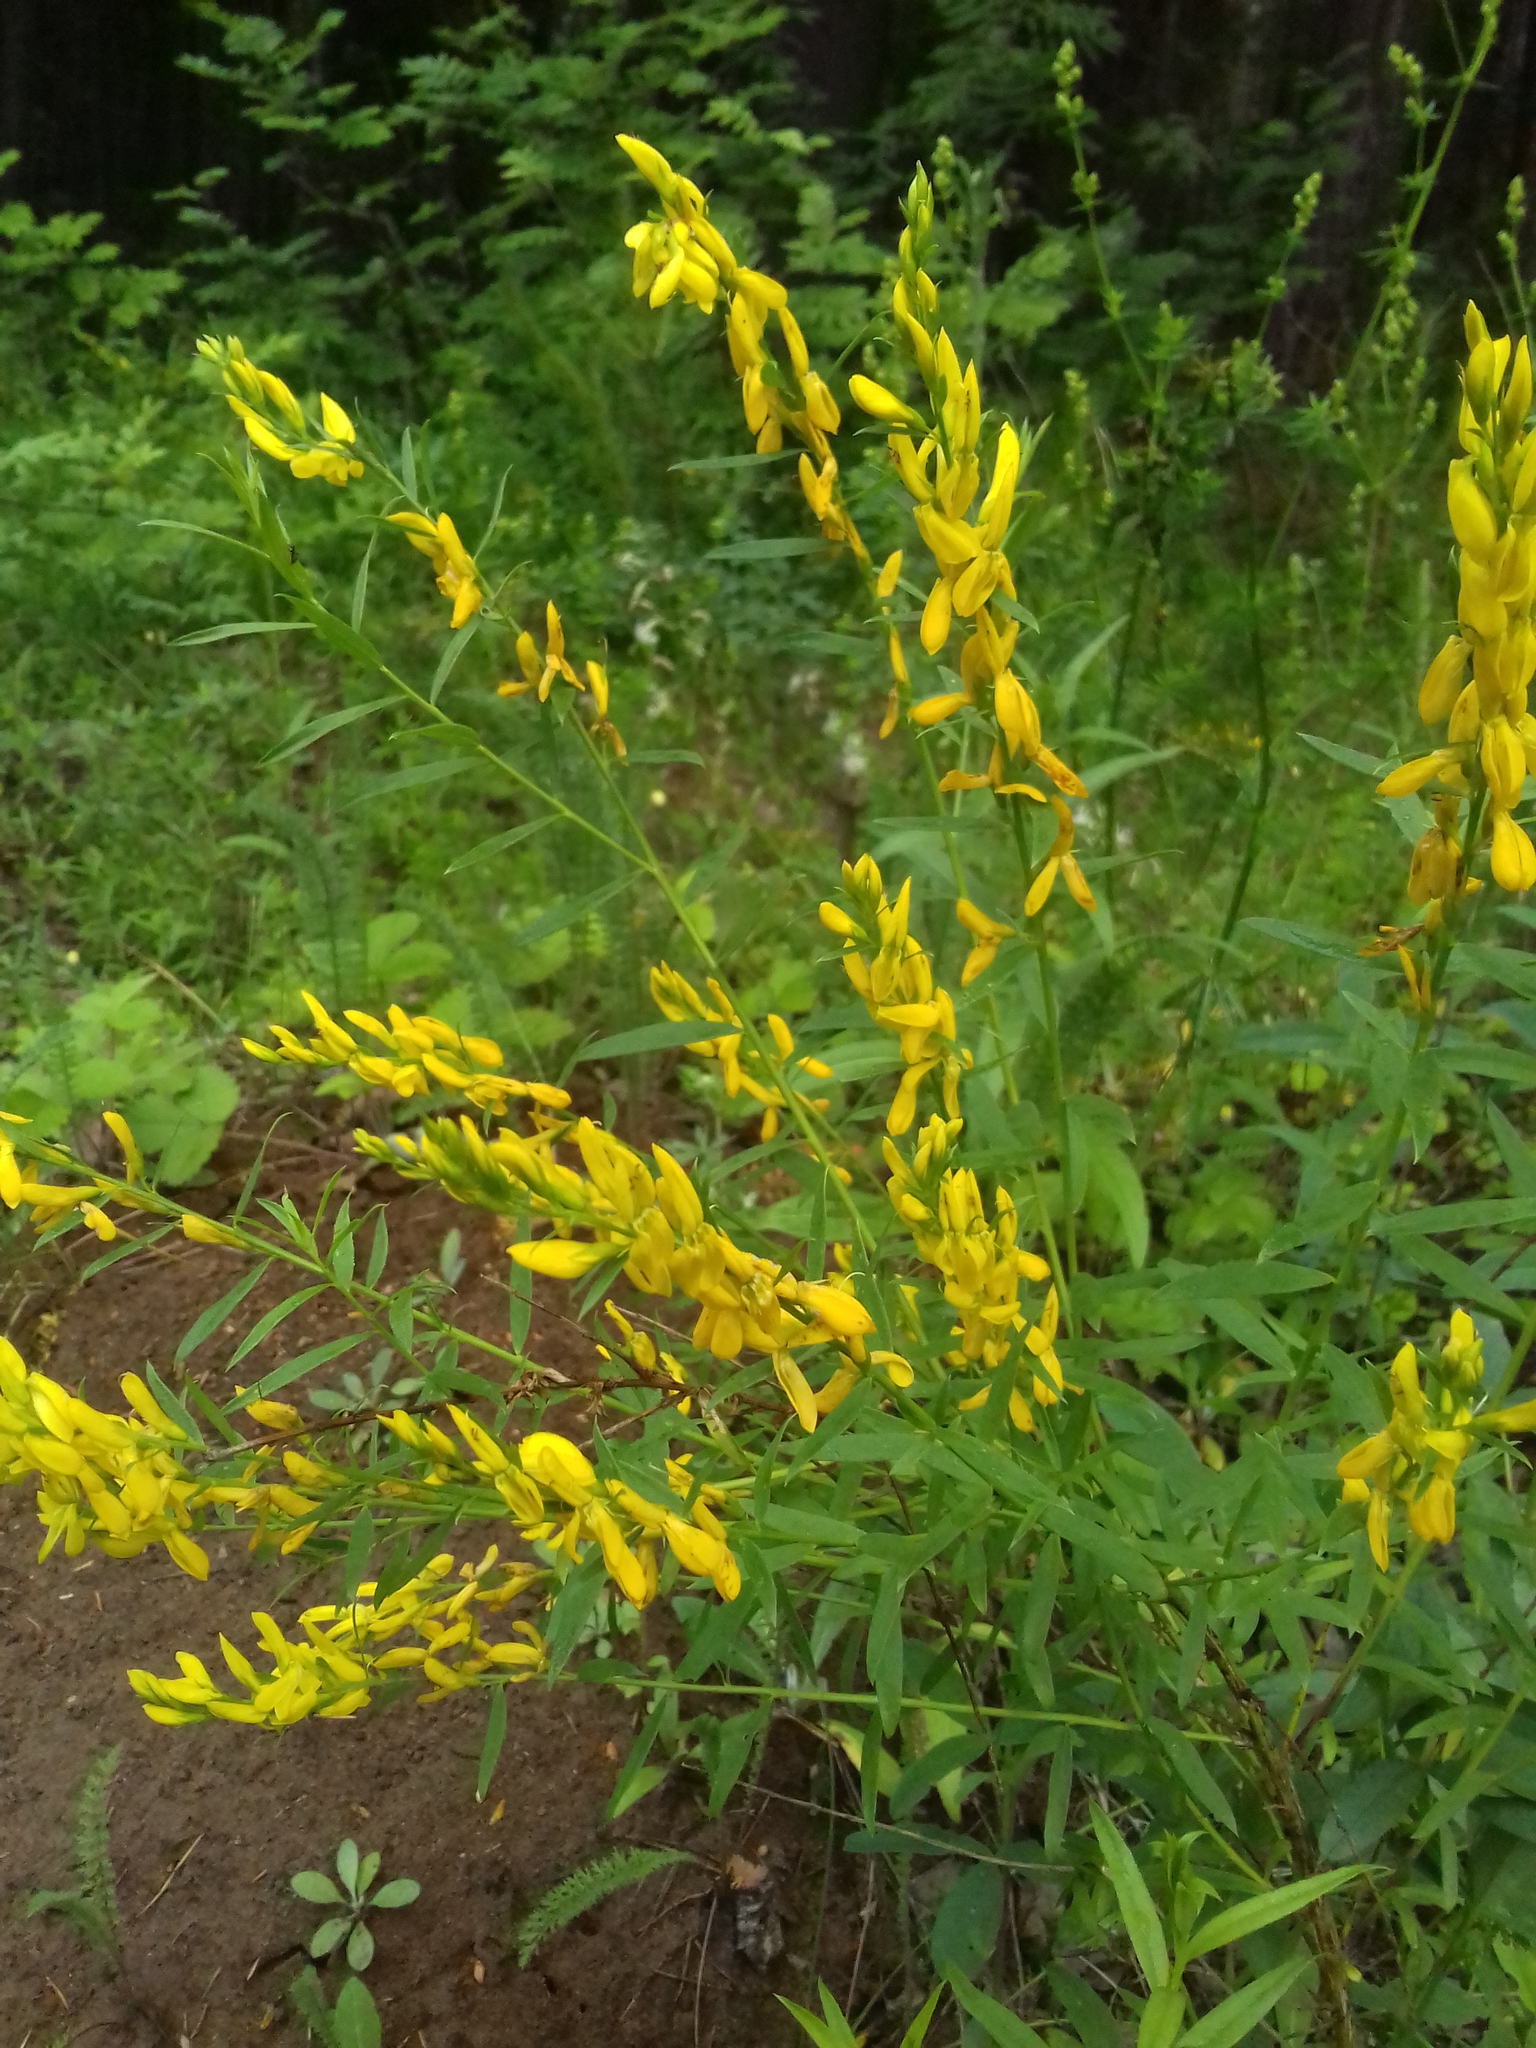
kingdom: Plantae
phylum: Tracheophyta
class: Magnoliopsida
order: Fabales
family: Fabaceae
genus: Genista
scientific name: Genista tinctoria
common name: Dyer's greenweed
